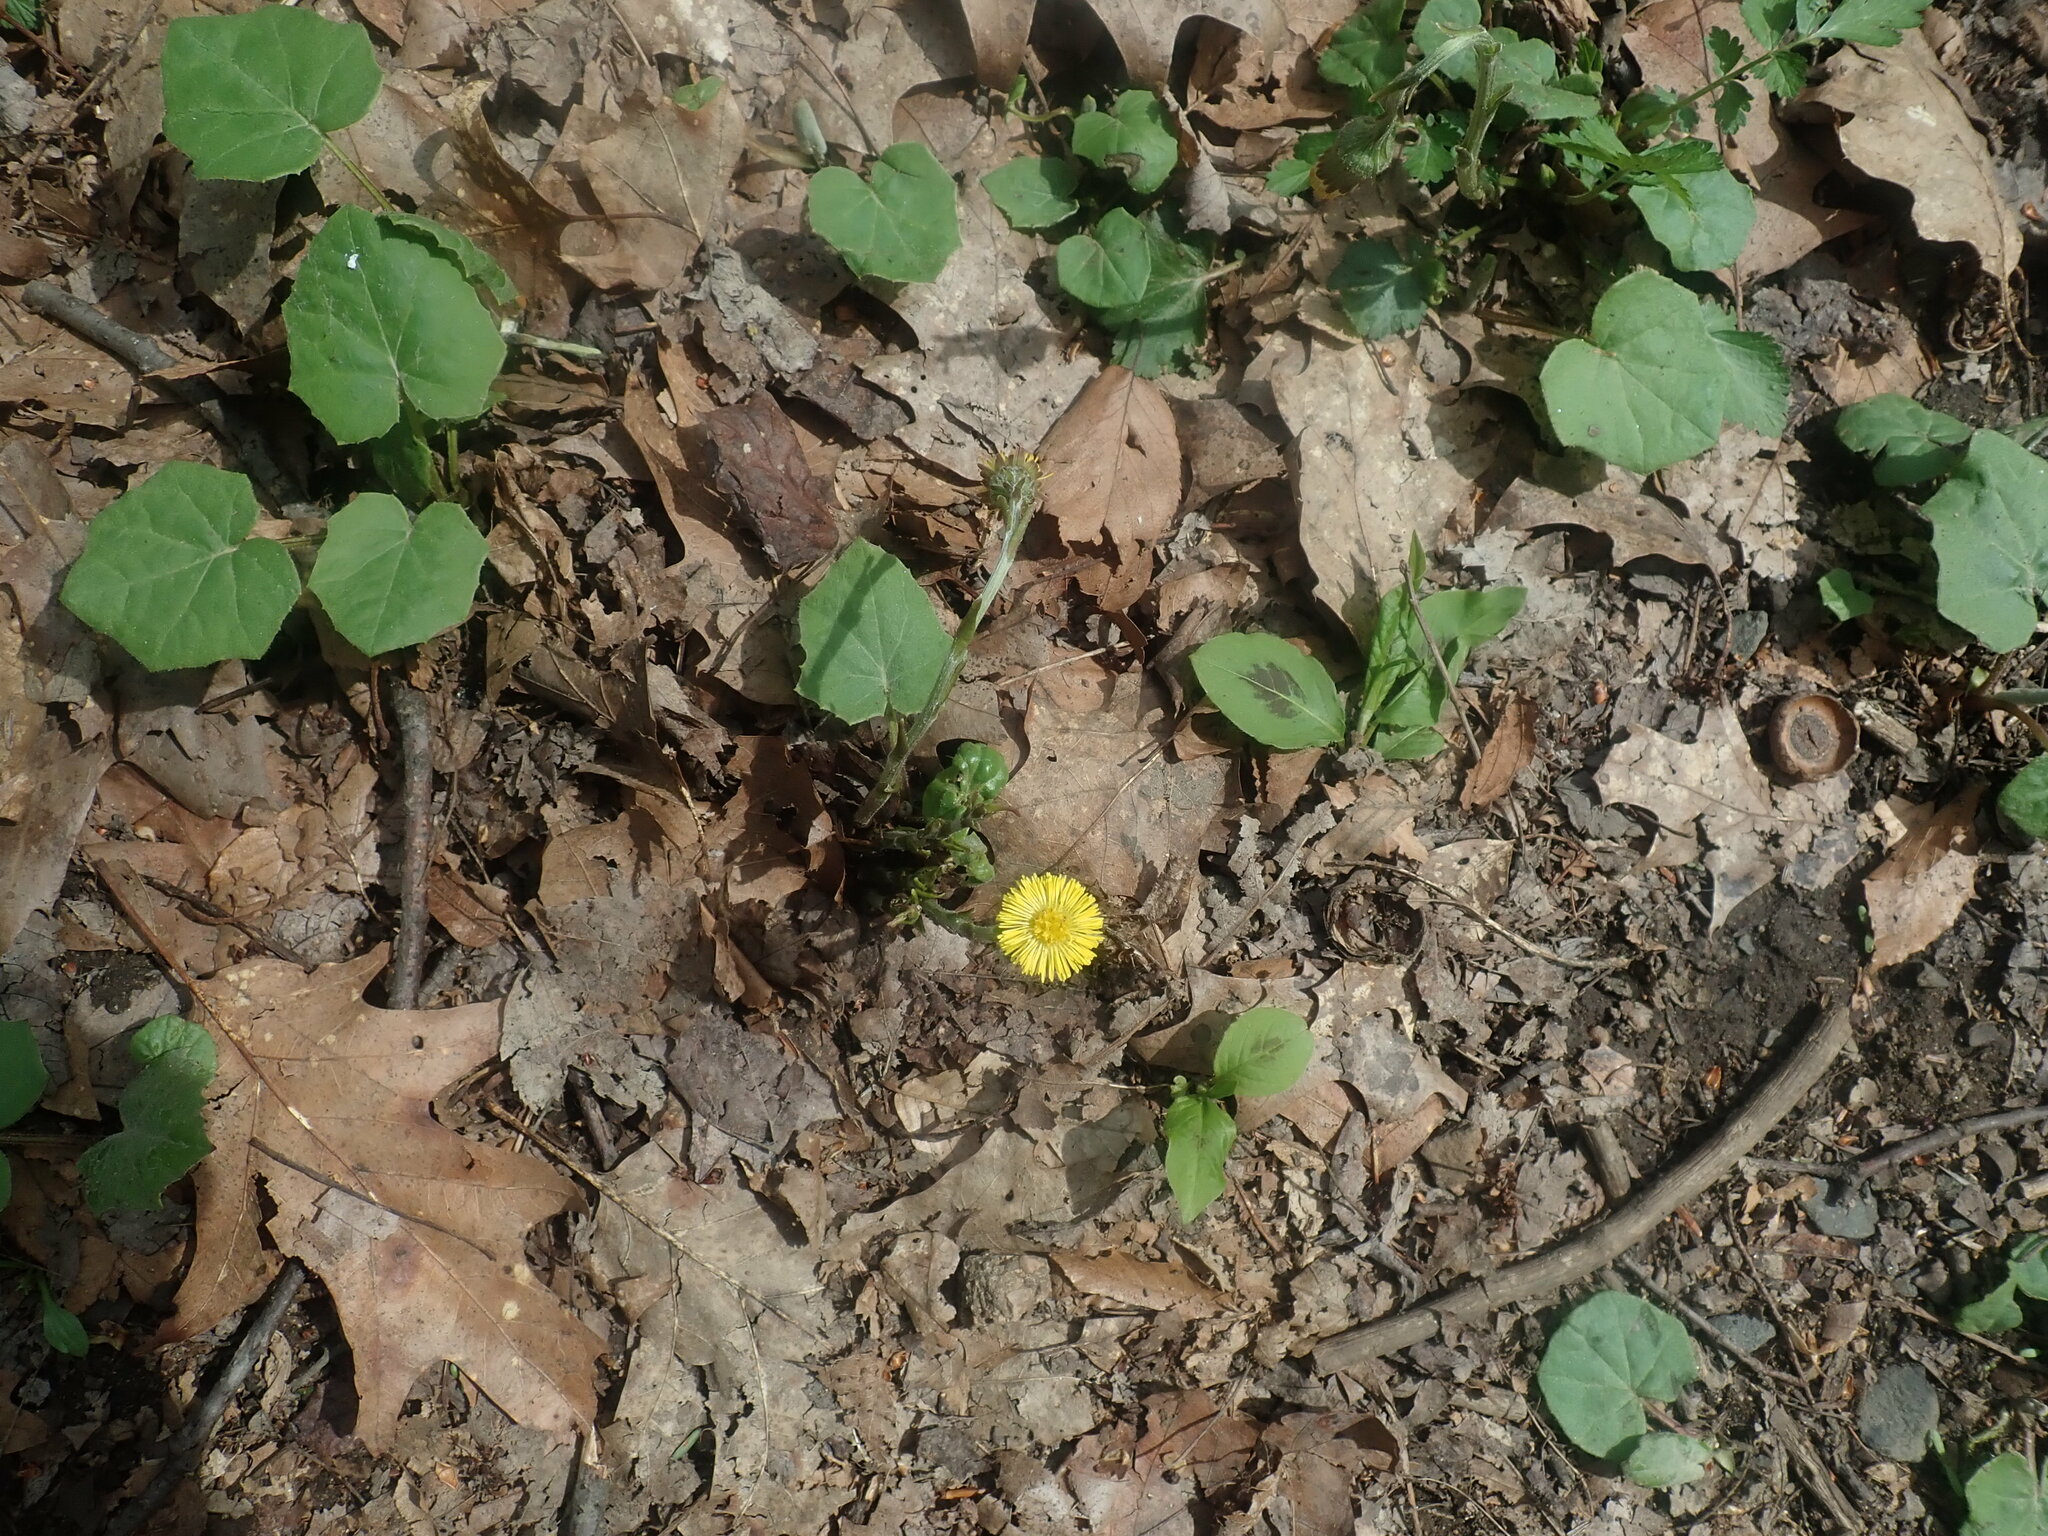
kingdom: Plantae
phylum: Tracheophyta
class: Magnoliopsida
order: Asterales
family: Asteraceae
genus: Tussilago
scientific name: Tussilago farfara
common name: Coltsfoot
